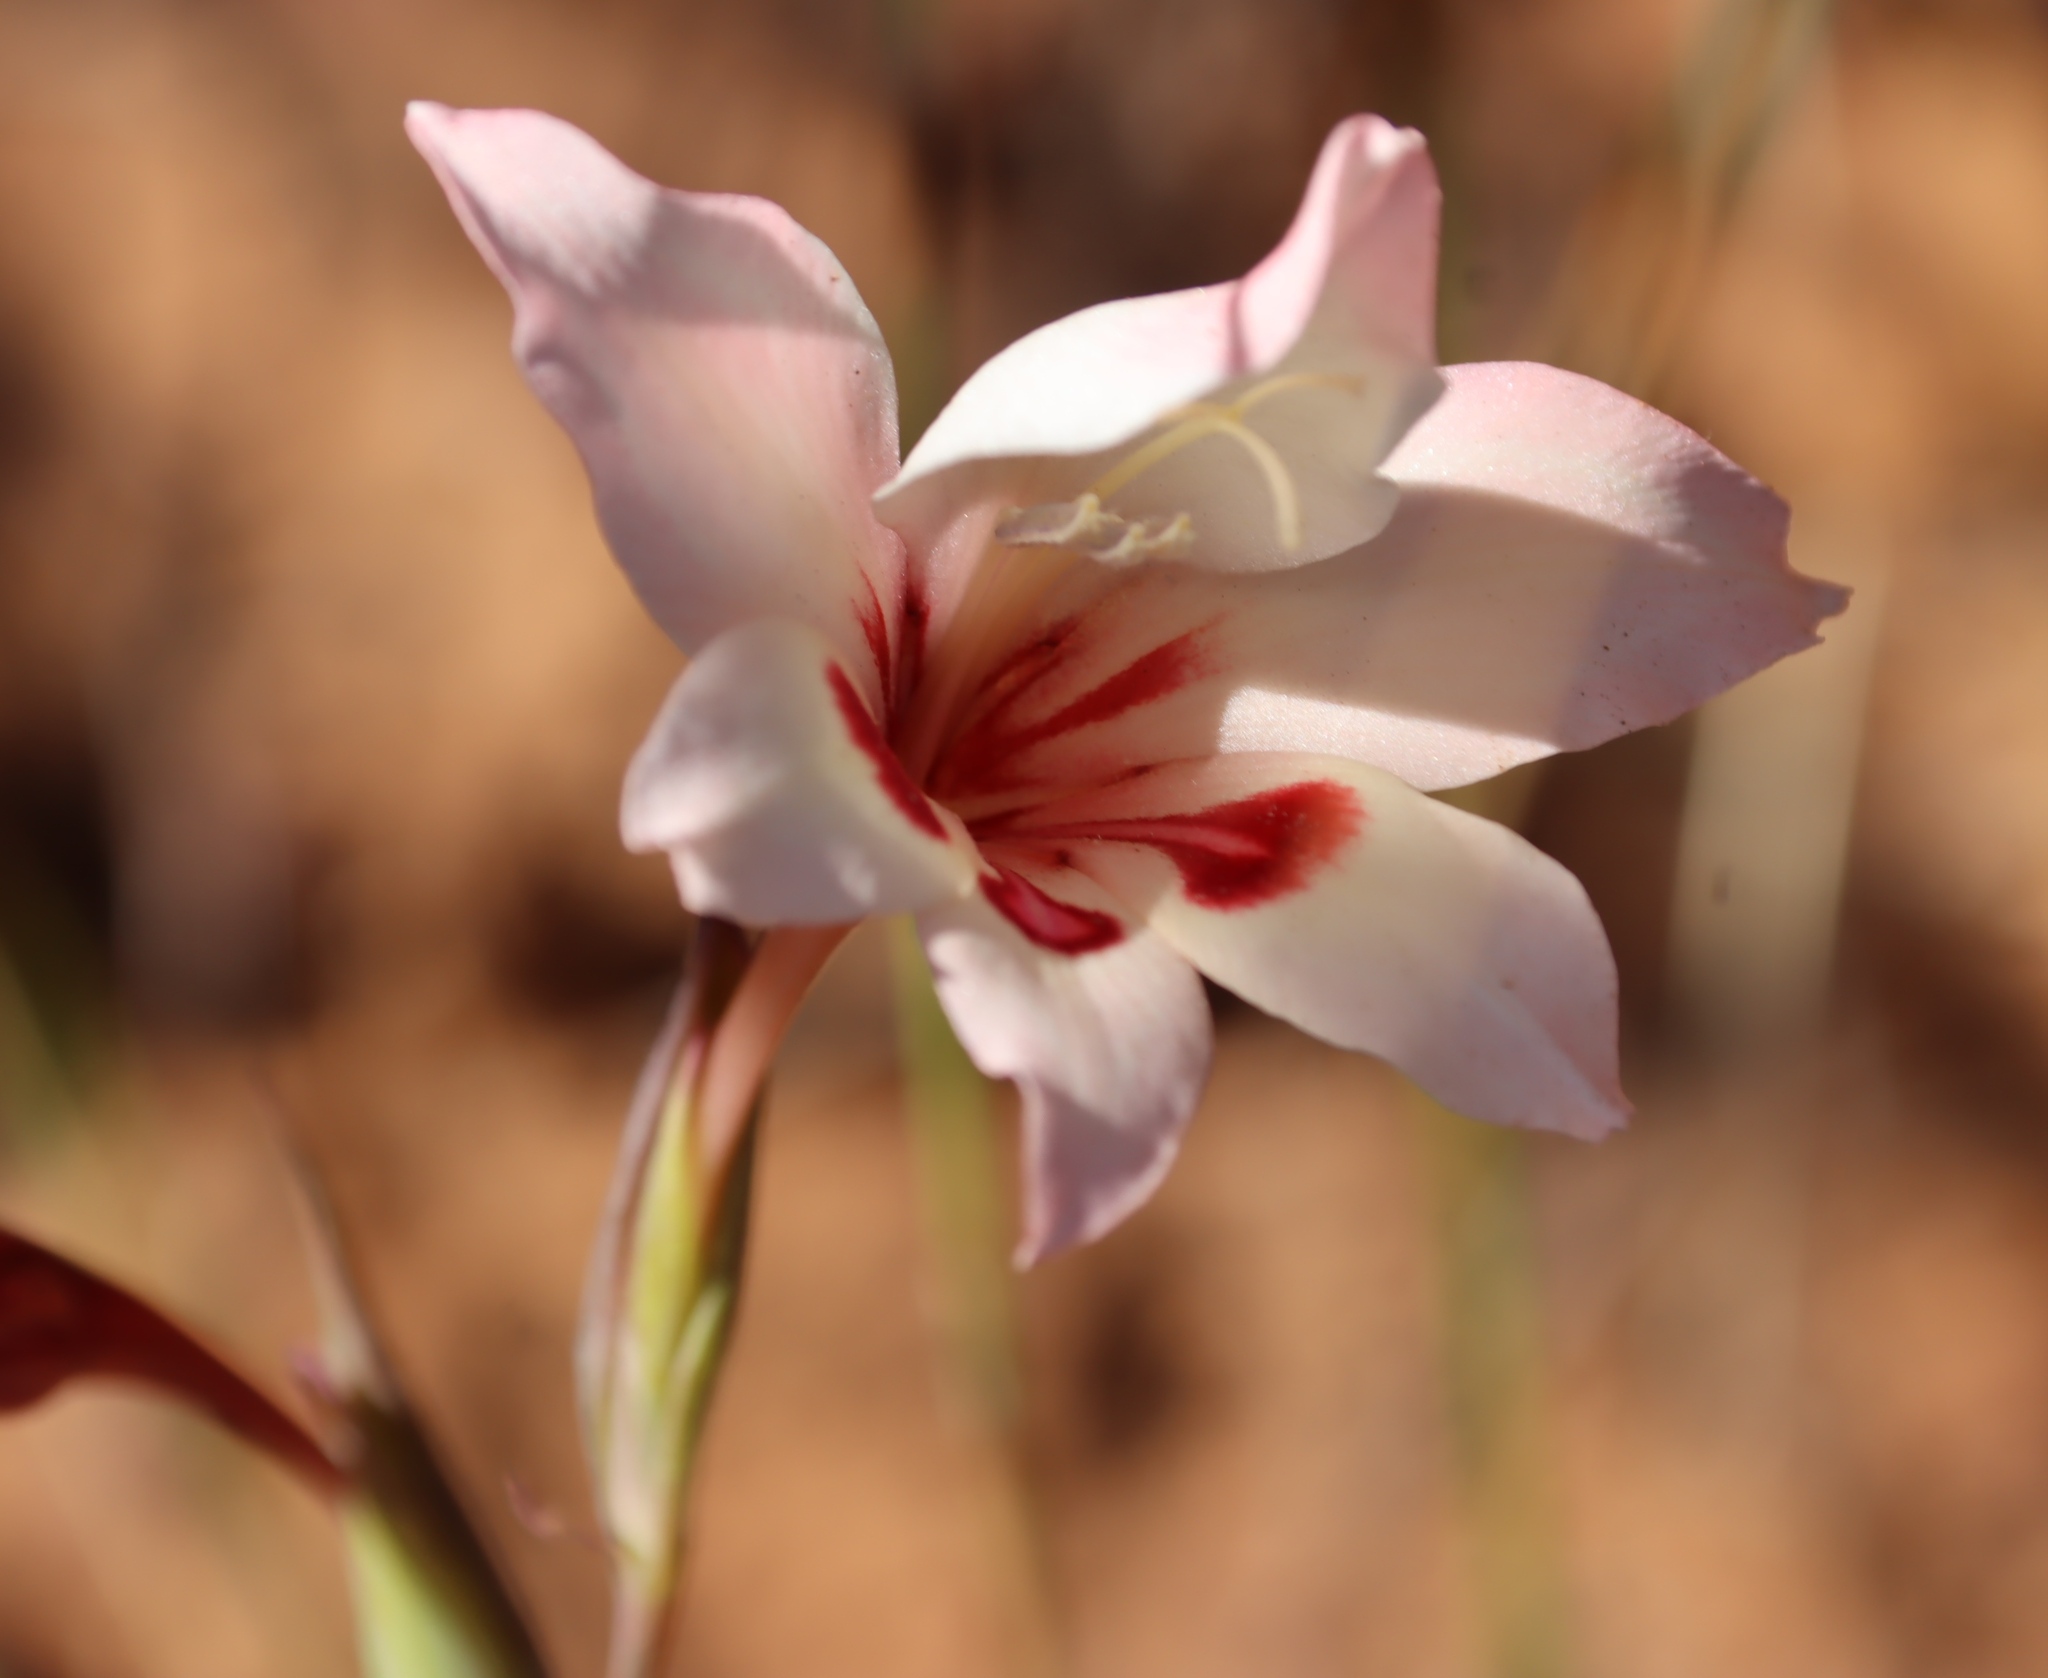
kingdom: Plantae
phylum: Tracheophyta
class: Liliopsida
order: Asparagales
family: Iridaceae
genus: Gladiolus
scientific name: Gladiolus carneus
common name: Painted-lady
